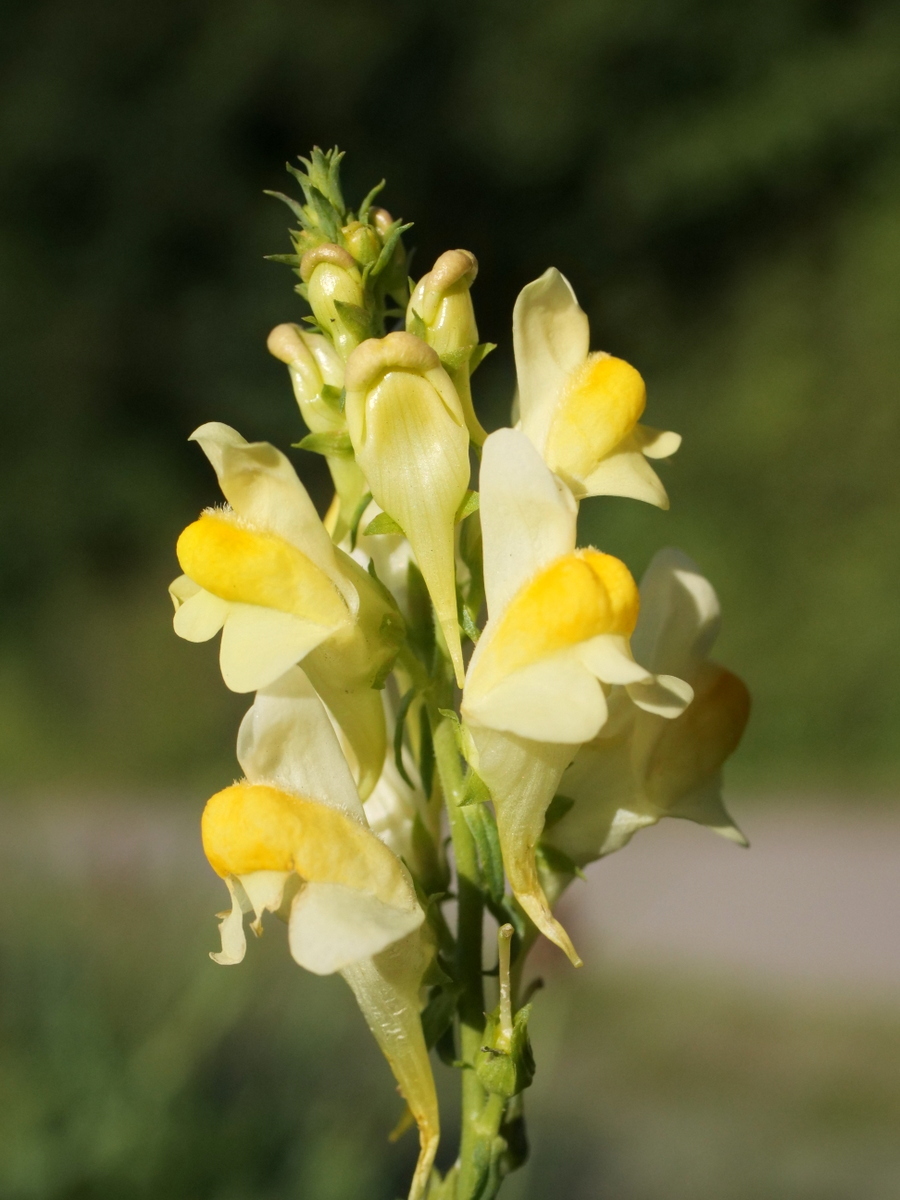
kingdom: Plantae
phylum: Tracheophyta
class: Magnoliopsida
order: Lamiales
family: Plantaginaceae
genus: Linaria
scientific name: Linaria vulgaris
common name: Butter and eggs
